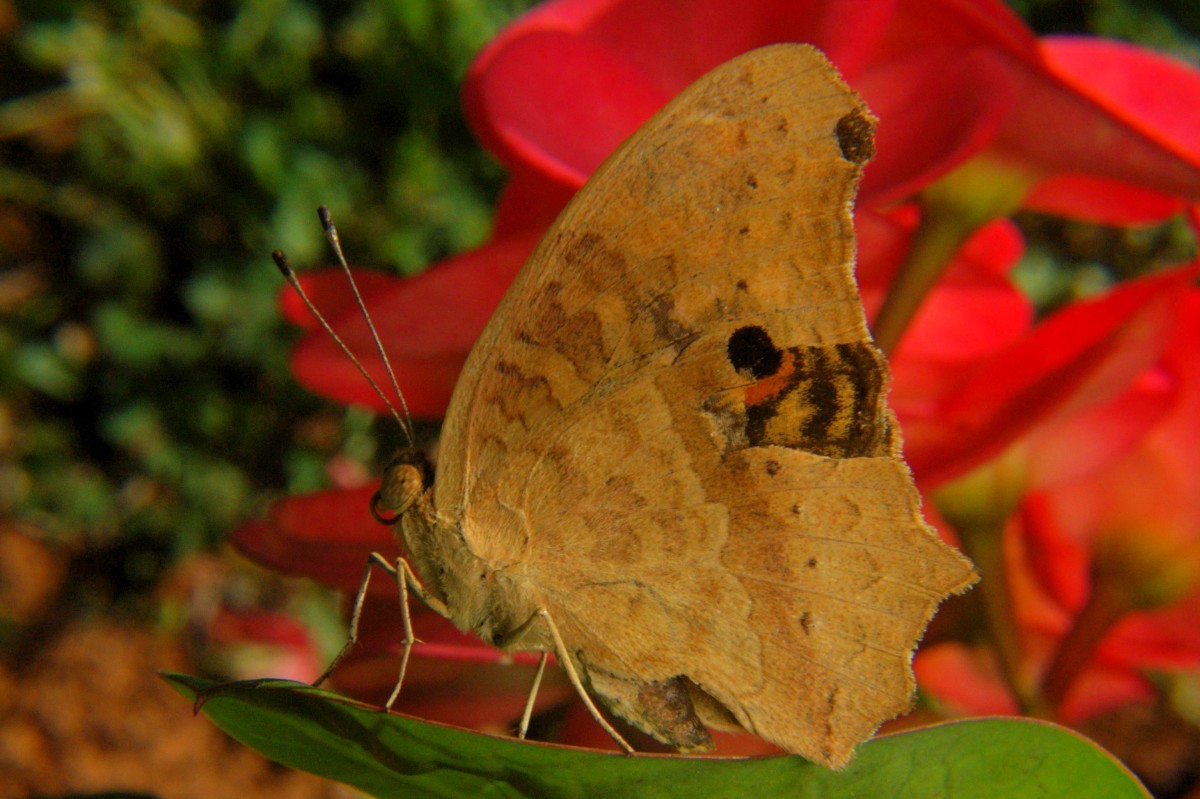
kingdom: Animalia
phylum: Arthropoda
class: Insecta
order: Lepidoptera
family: Nymphalidae
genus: Junonia
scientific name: Junonia lemonias
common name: Lemon pansy
